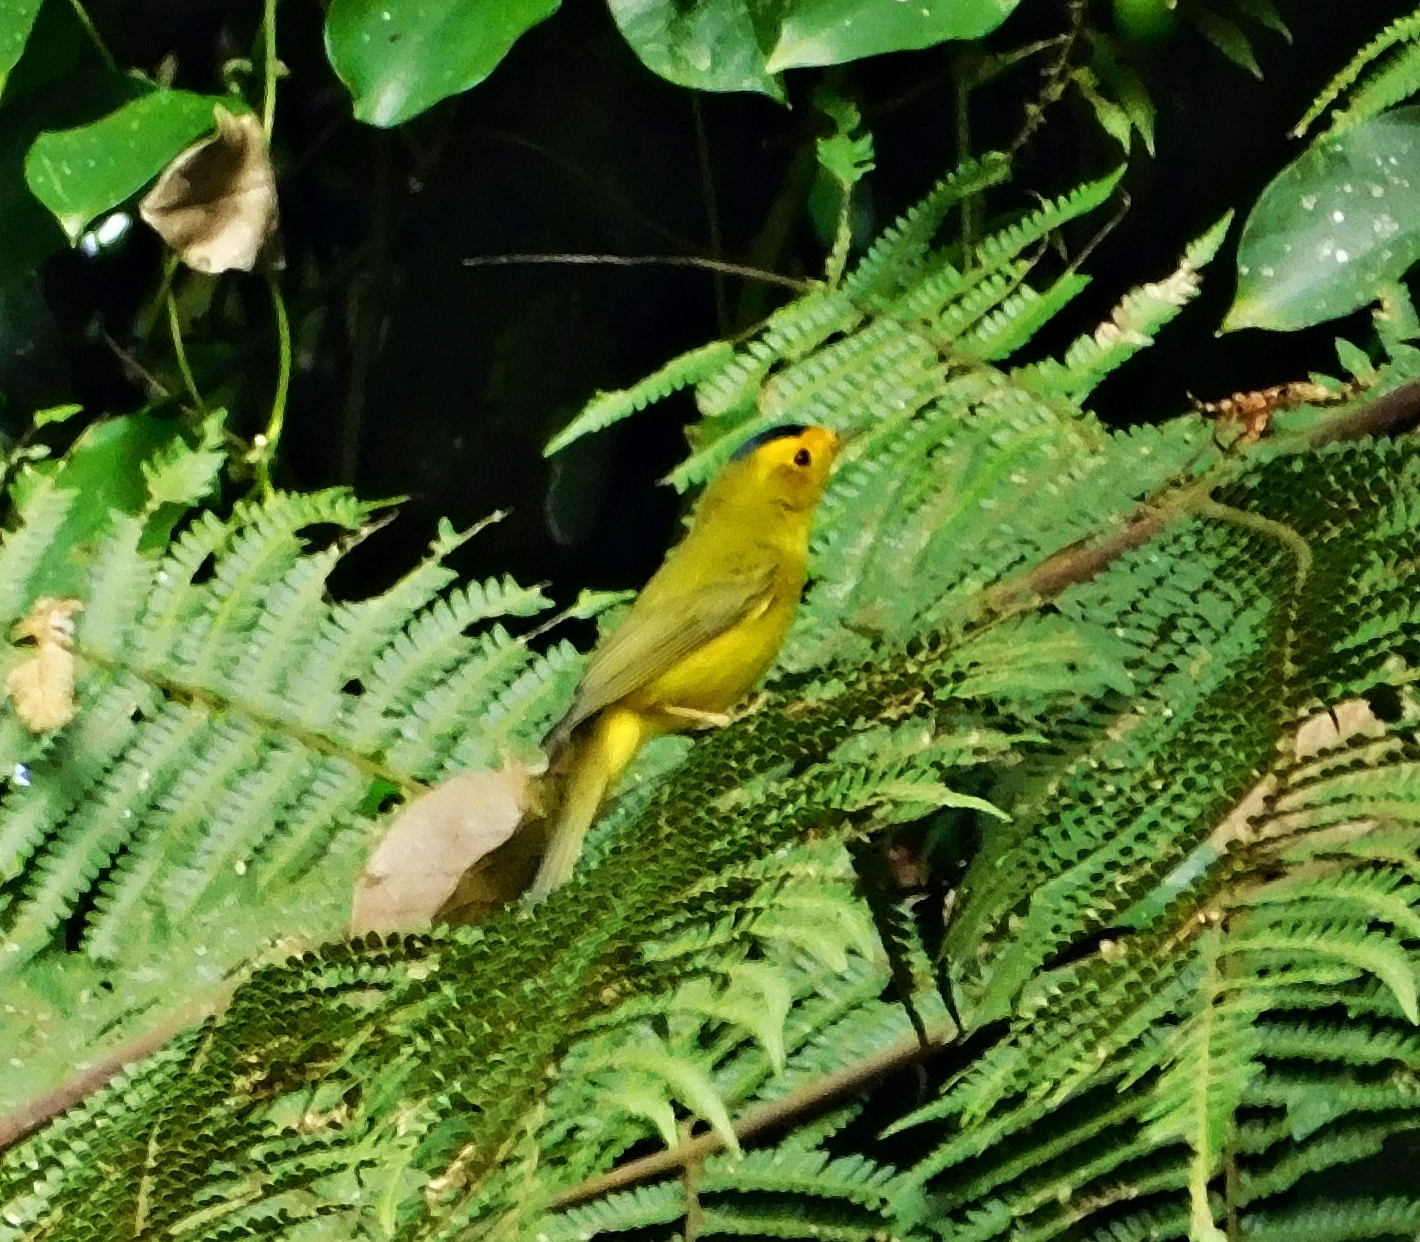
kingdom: Animalia
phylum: Chordata
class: Aves
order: Passeriformes
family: Parulidae
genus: Cardellina
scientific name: Cardellina pusilla
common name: Wilson's warbler
